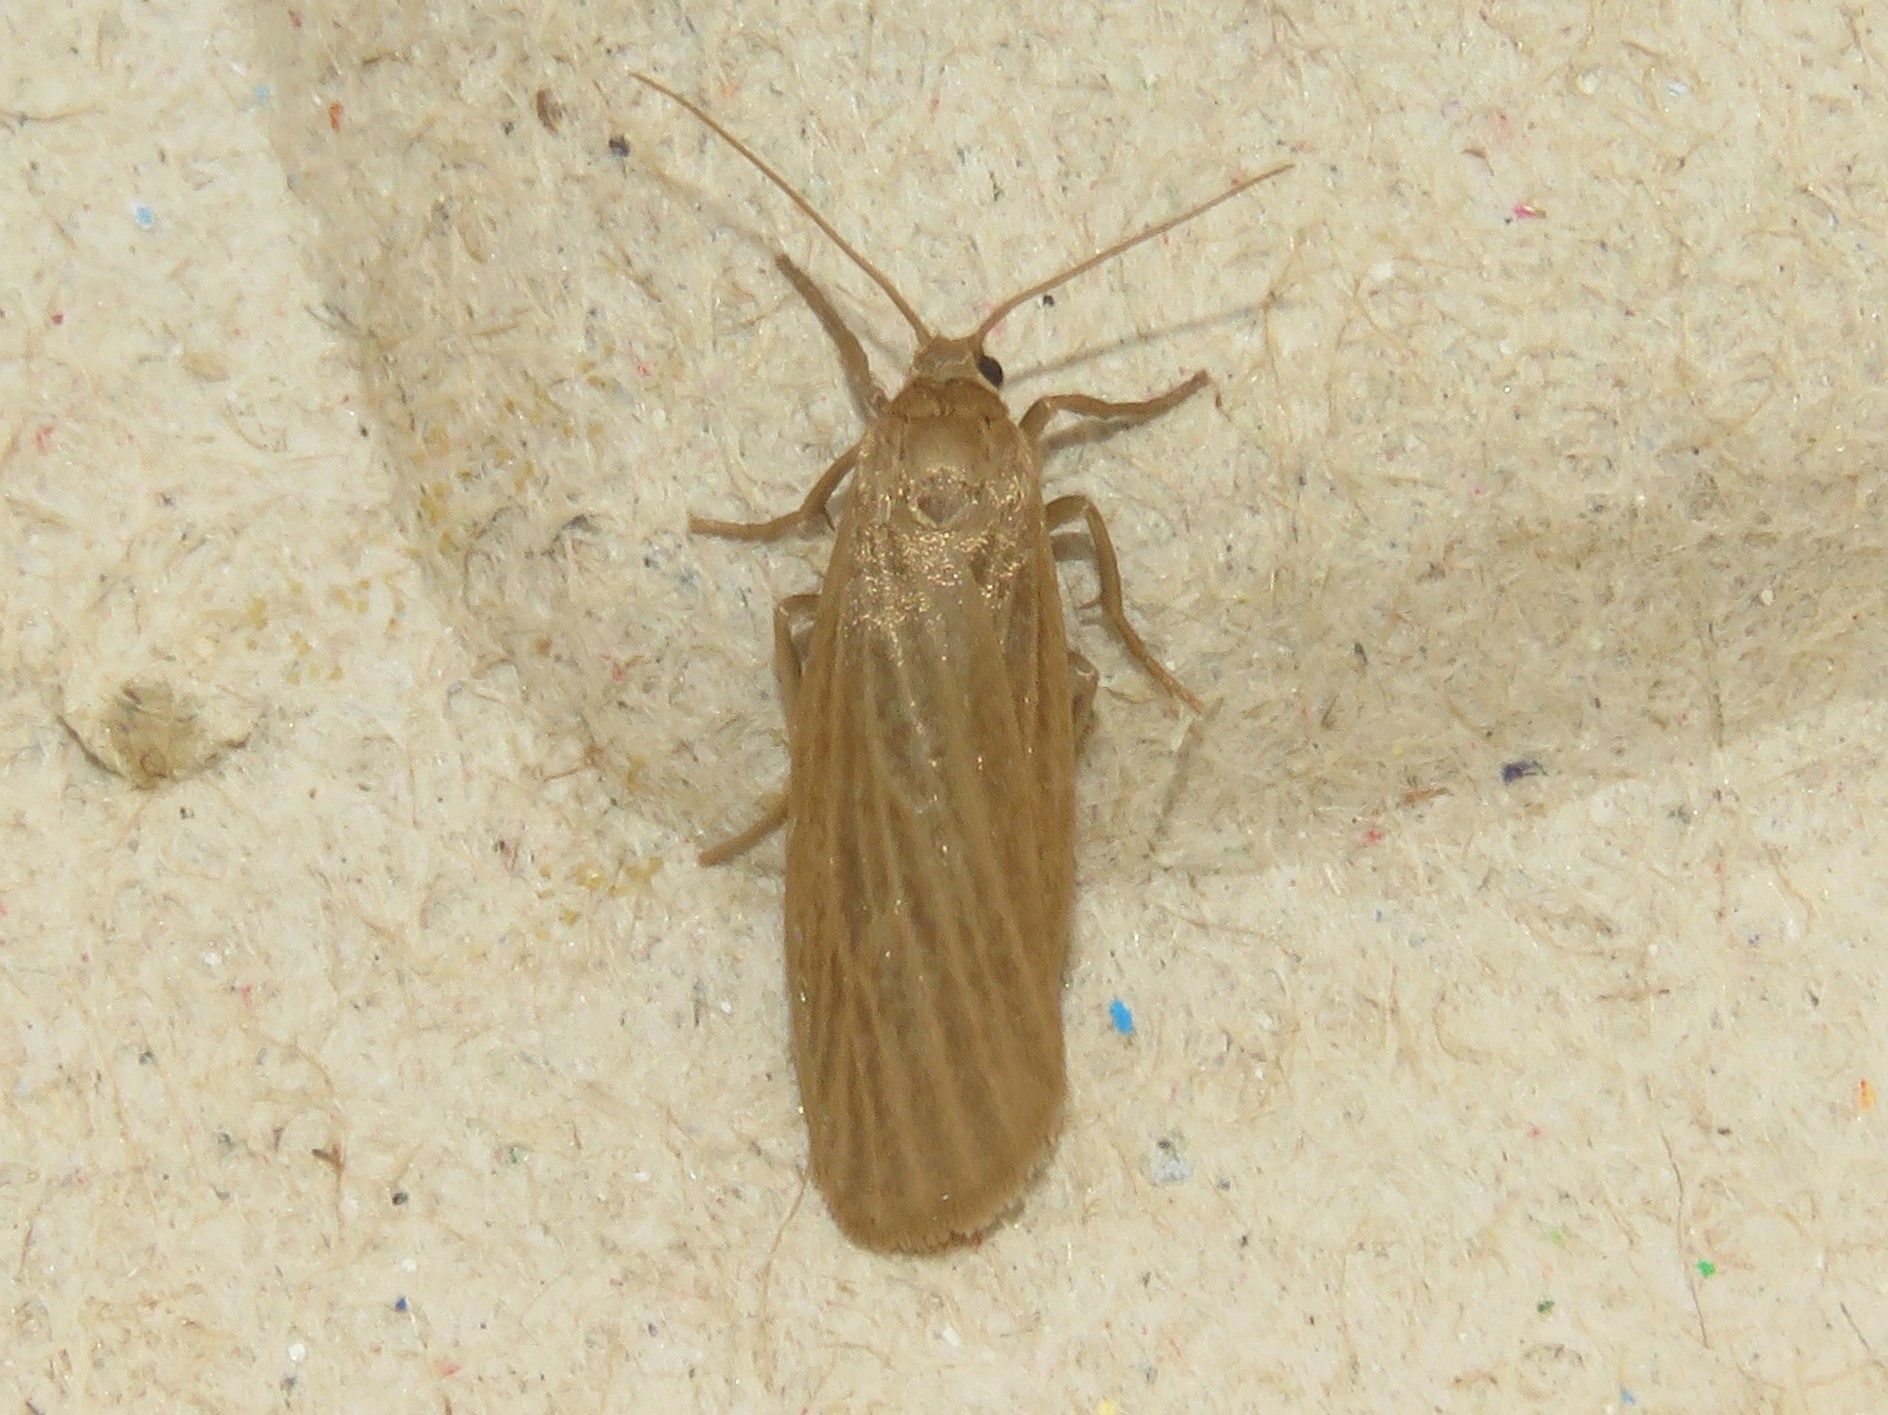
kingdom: Animalia
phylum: Arthropoda
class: Insecta
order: Lepidoptera
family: Erebidae
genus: Crambidia
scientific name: Crambidia pallida
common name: Pale lichen moth
